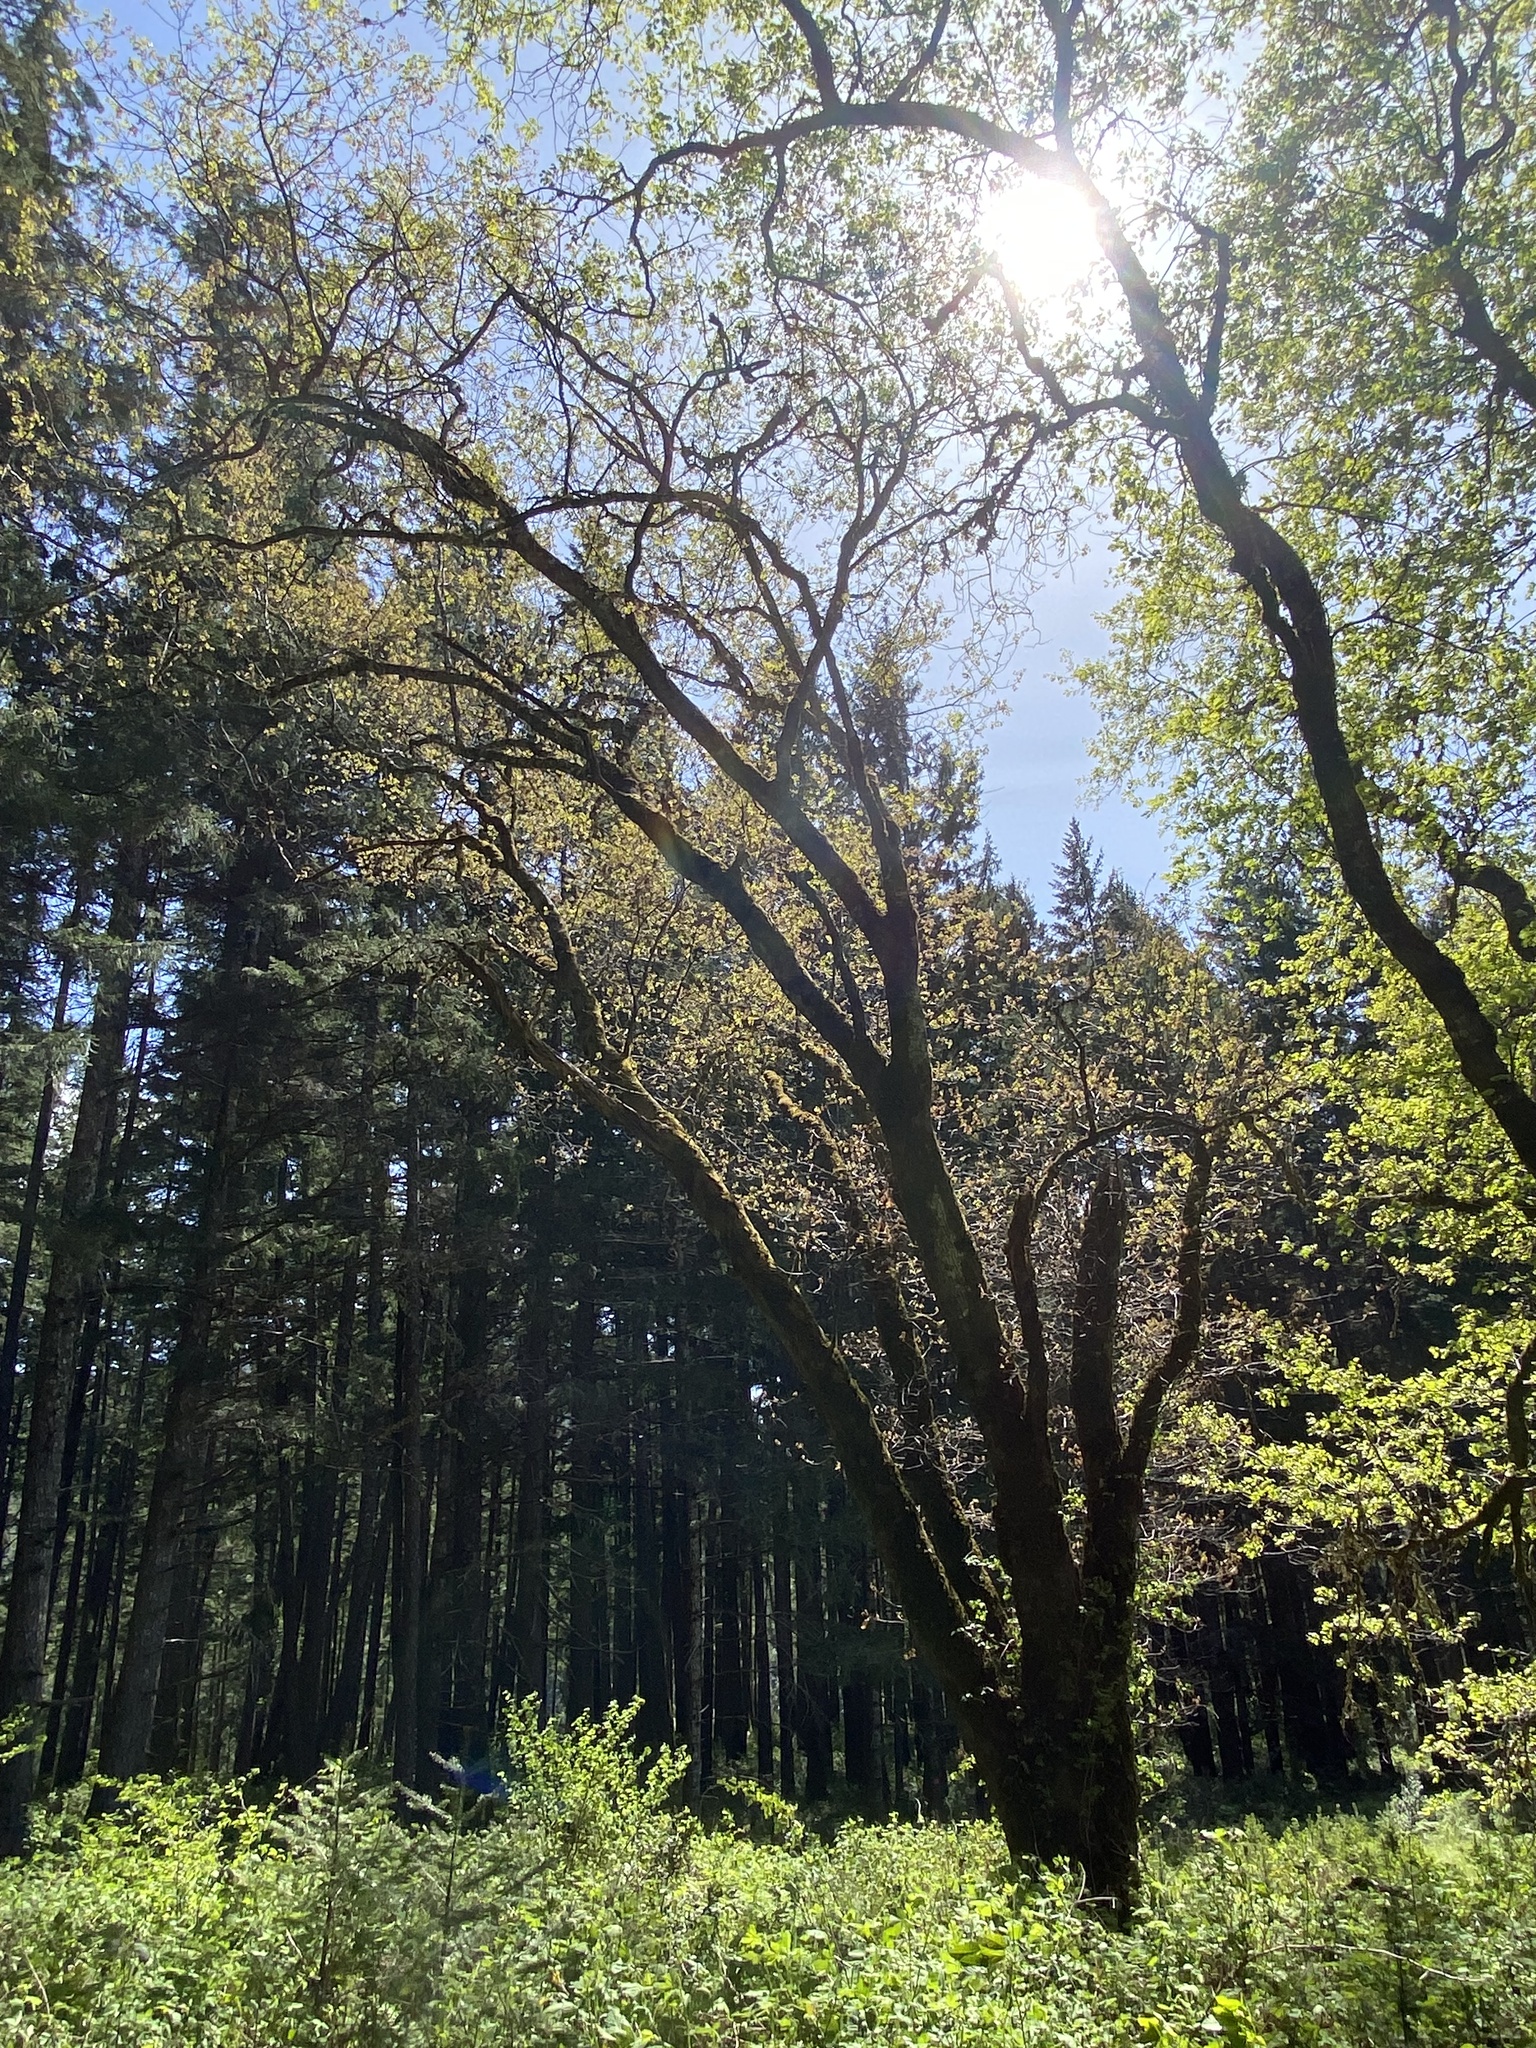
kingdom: Plantae
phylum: Tracheophyta
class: Magnoliopsida
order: Fagales
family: Fagaceae
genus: Quercus
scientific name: Quercus kelloggii
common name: California black oak
